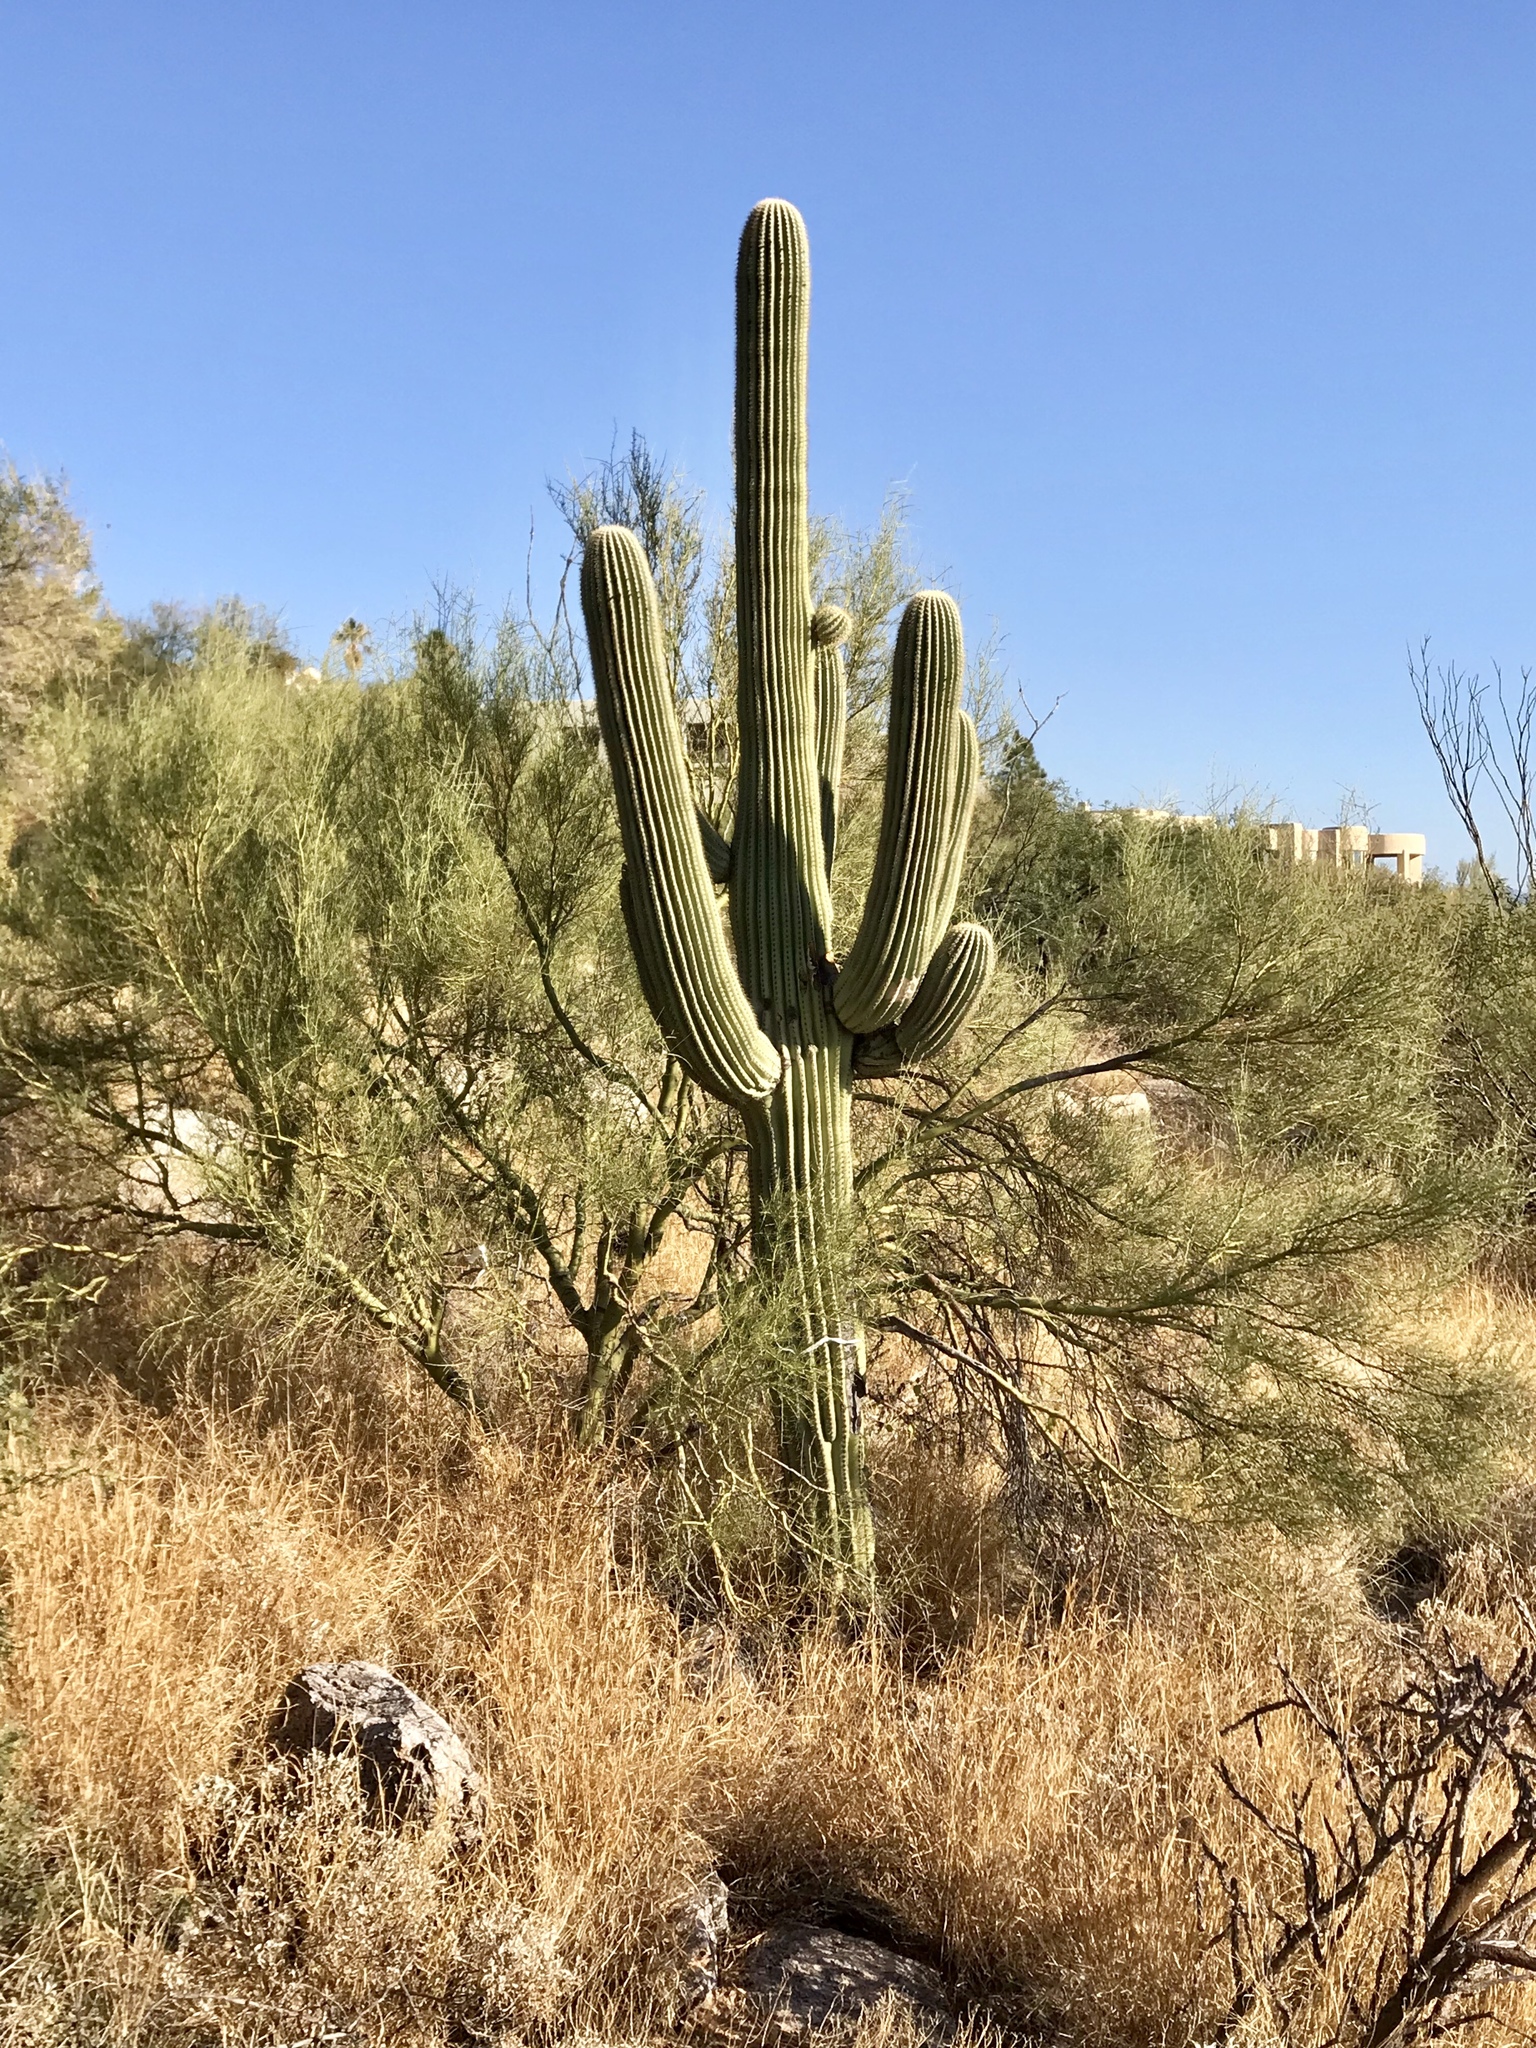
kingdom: Plantae
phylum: Tracheophyta
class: Magnoliopsida
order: Caryophyllales
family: Cactaceae
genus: Carnegiea
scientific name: Carnegiea gigantea
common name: Saguaro
